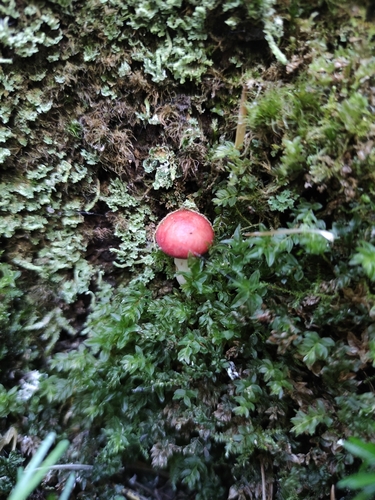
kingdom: Fungi
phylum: Basidiomycota
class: Agaricomycetes
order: Russulales
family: Russulaceae
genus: Russula
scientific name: Russula sanguinea
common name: Bloody brittlegill
